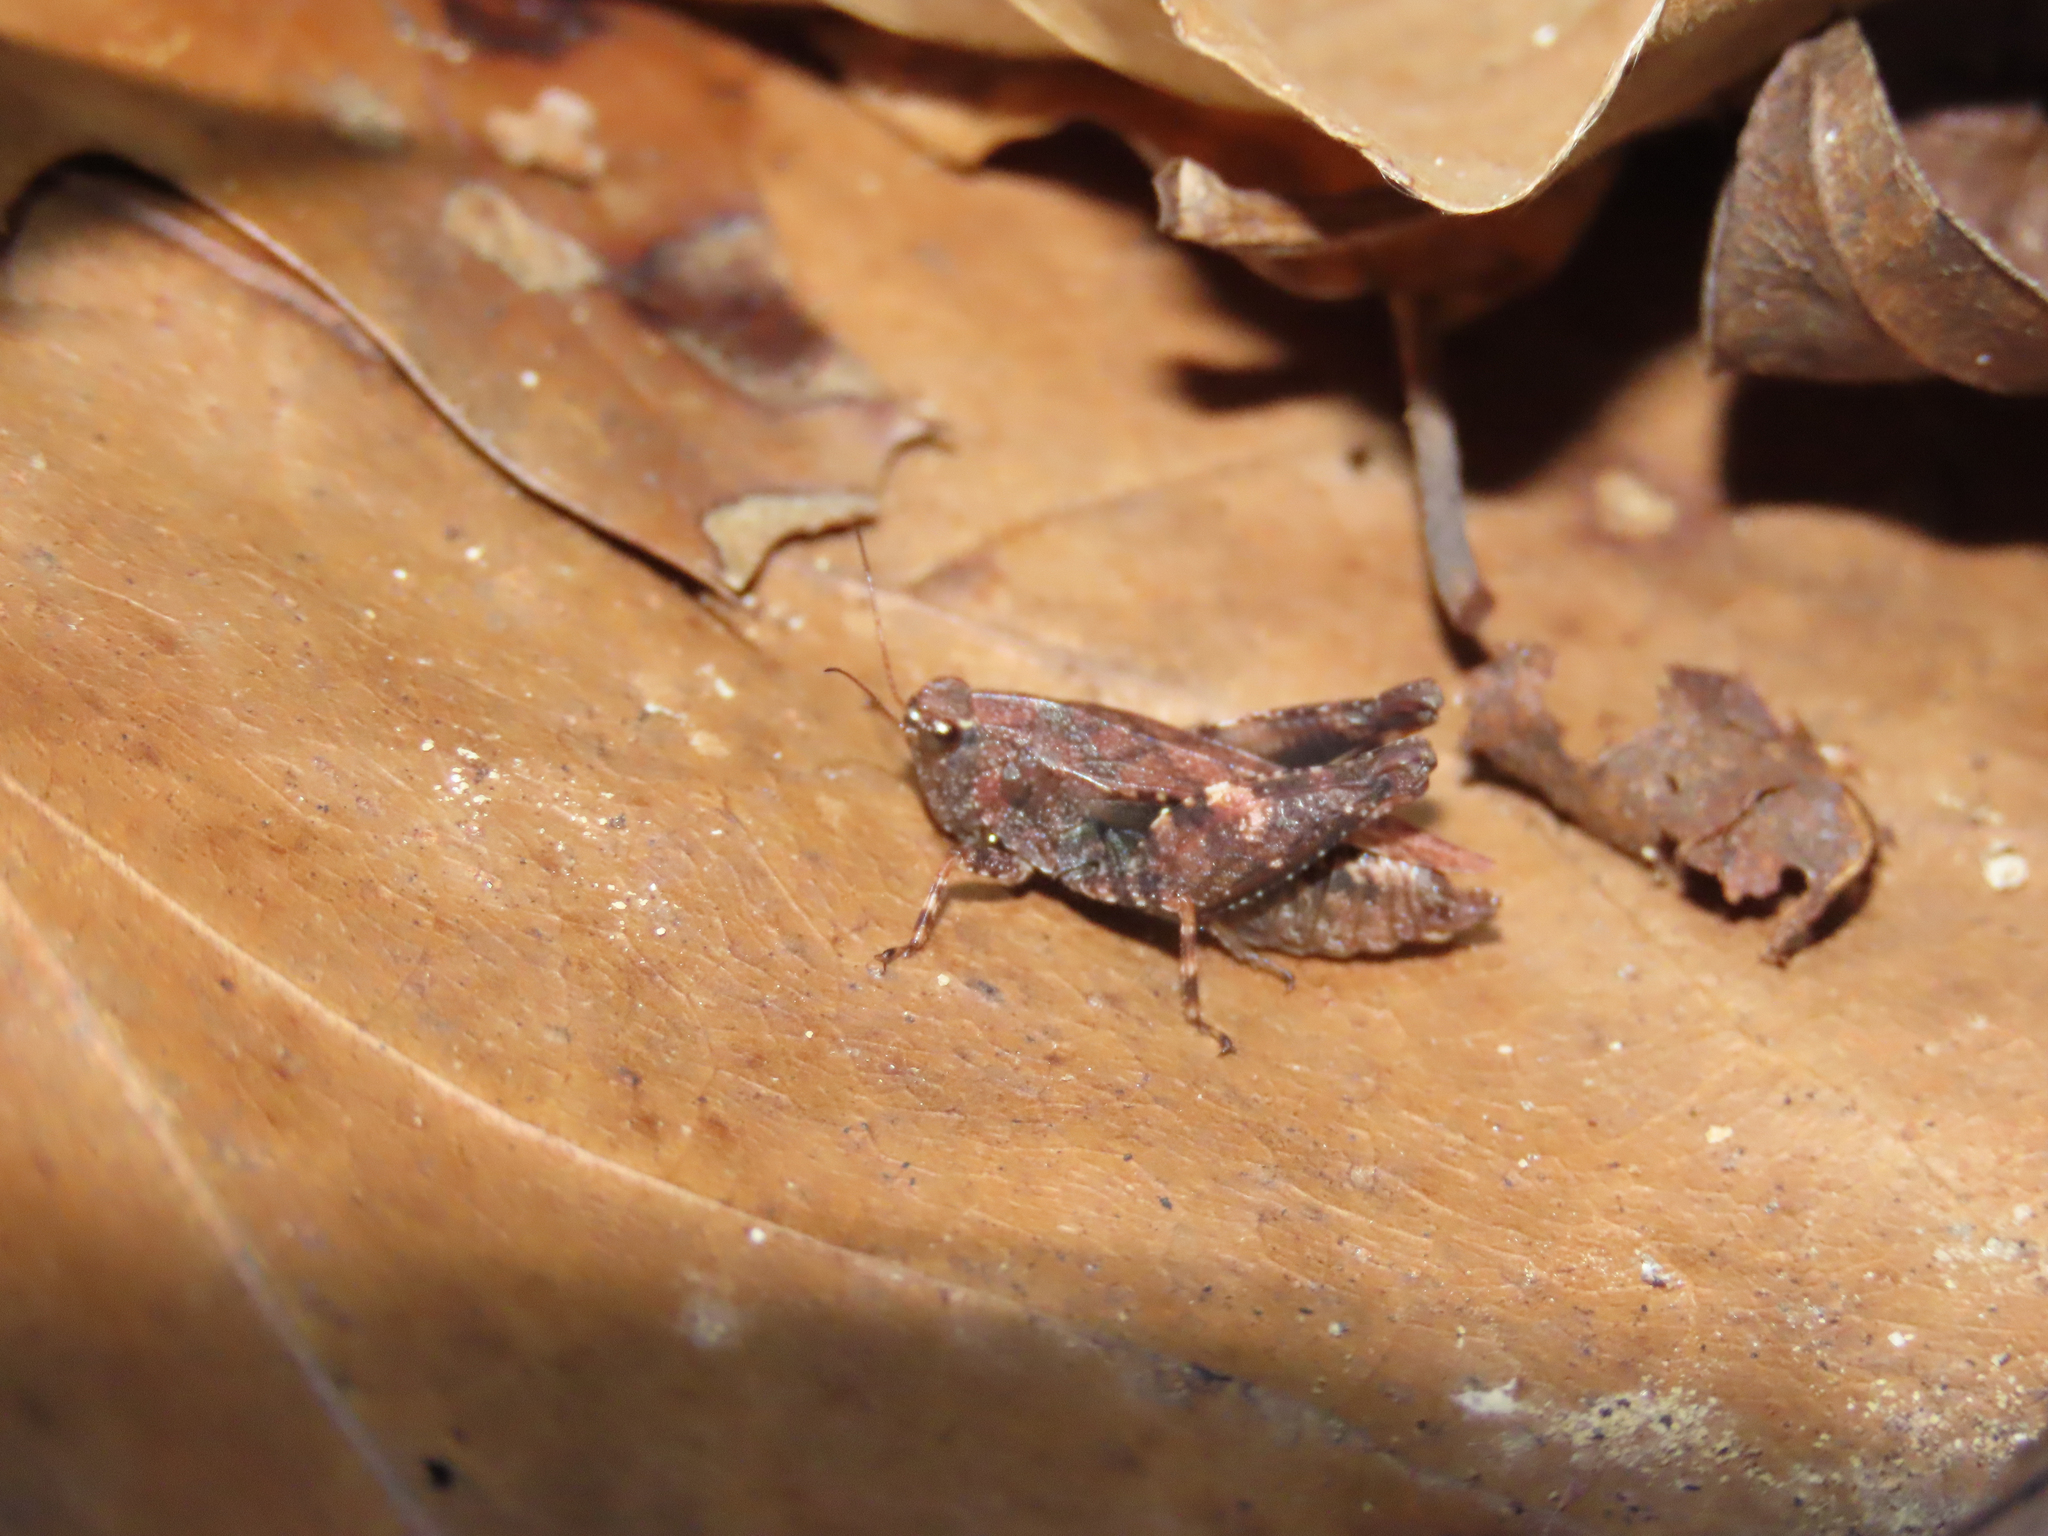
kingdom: Animalia
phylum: Arthropoda
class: Insecta
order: Orthoptera
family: Tetrigidae
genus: Tettigidea
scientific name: Tettigidea laterale
